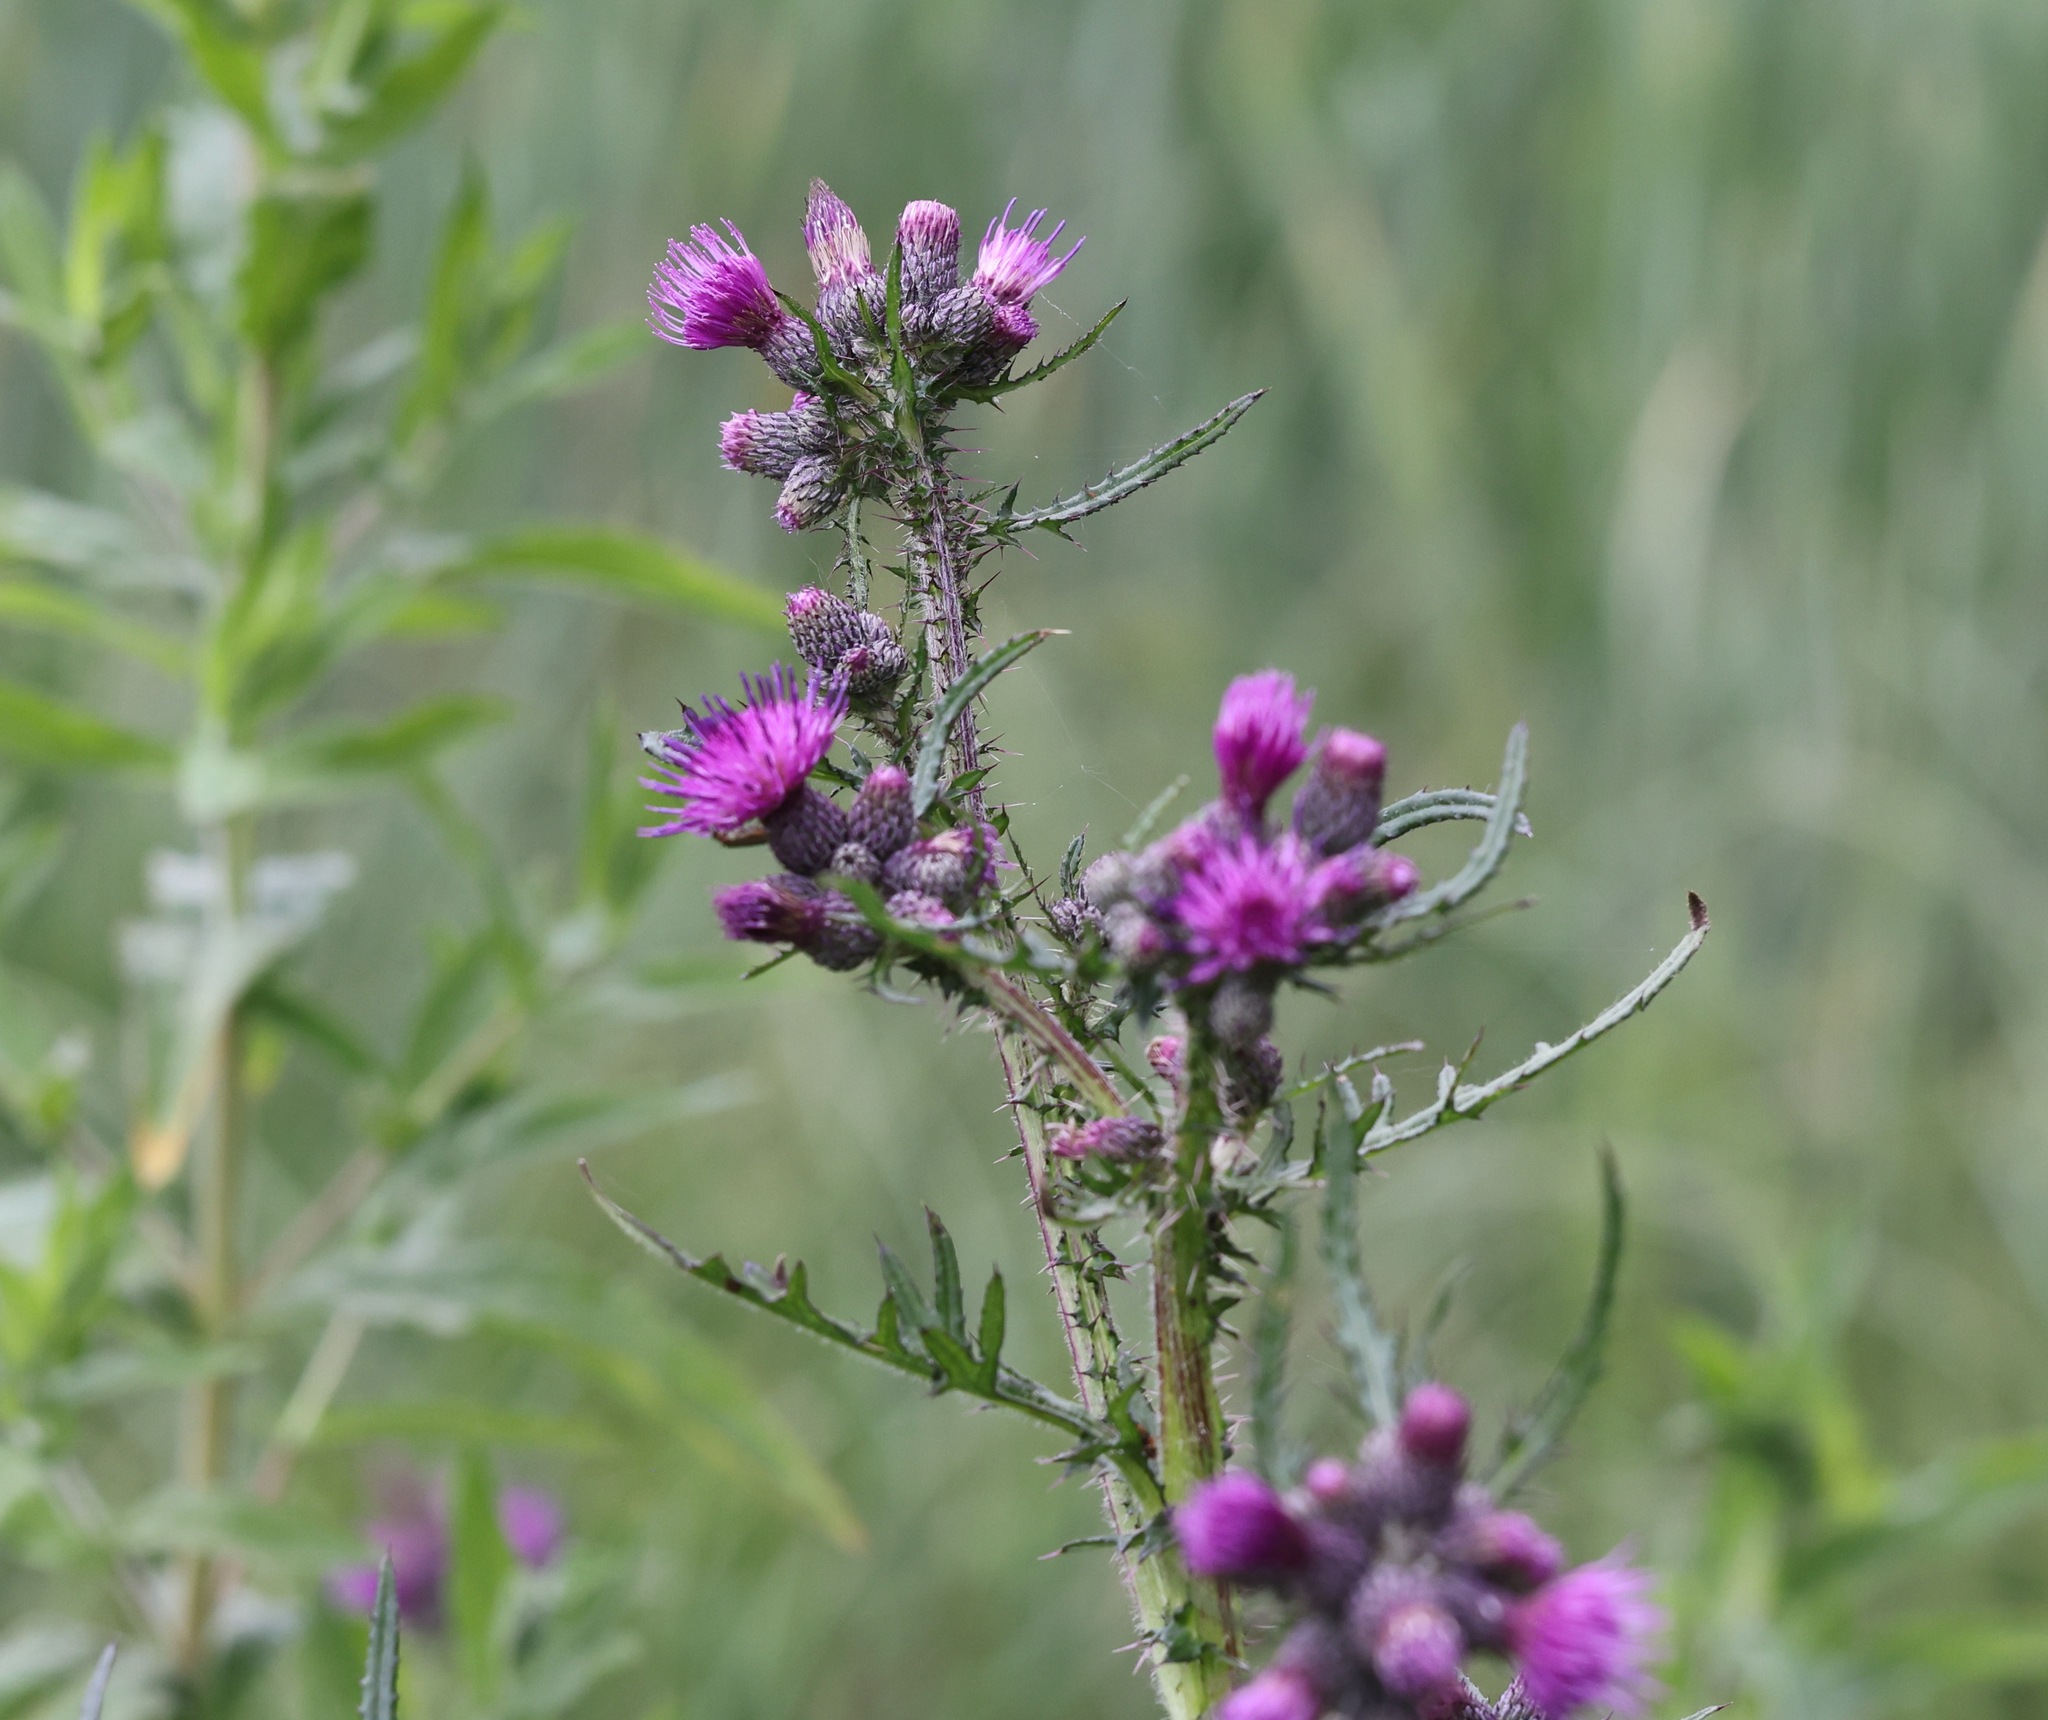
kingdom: Plantae
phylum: Tracheophyta
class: Magnoliopsida
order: Asterales
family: Asteraceae
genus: Cirsium
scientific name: Cirsium palustre
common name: Marsh thistle
